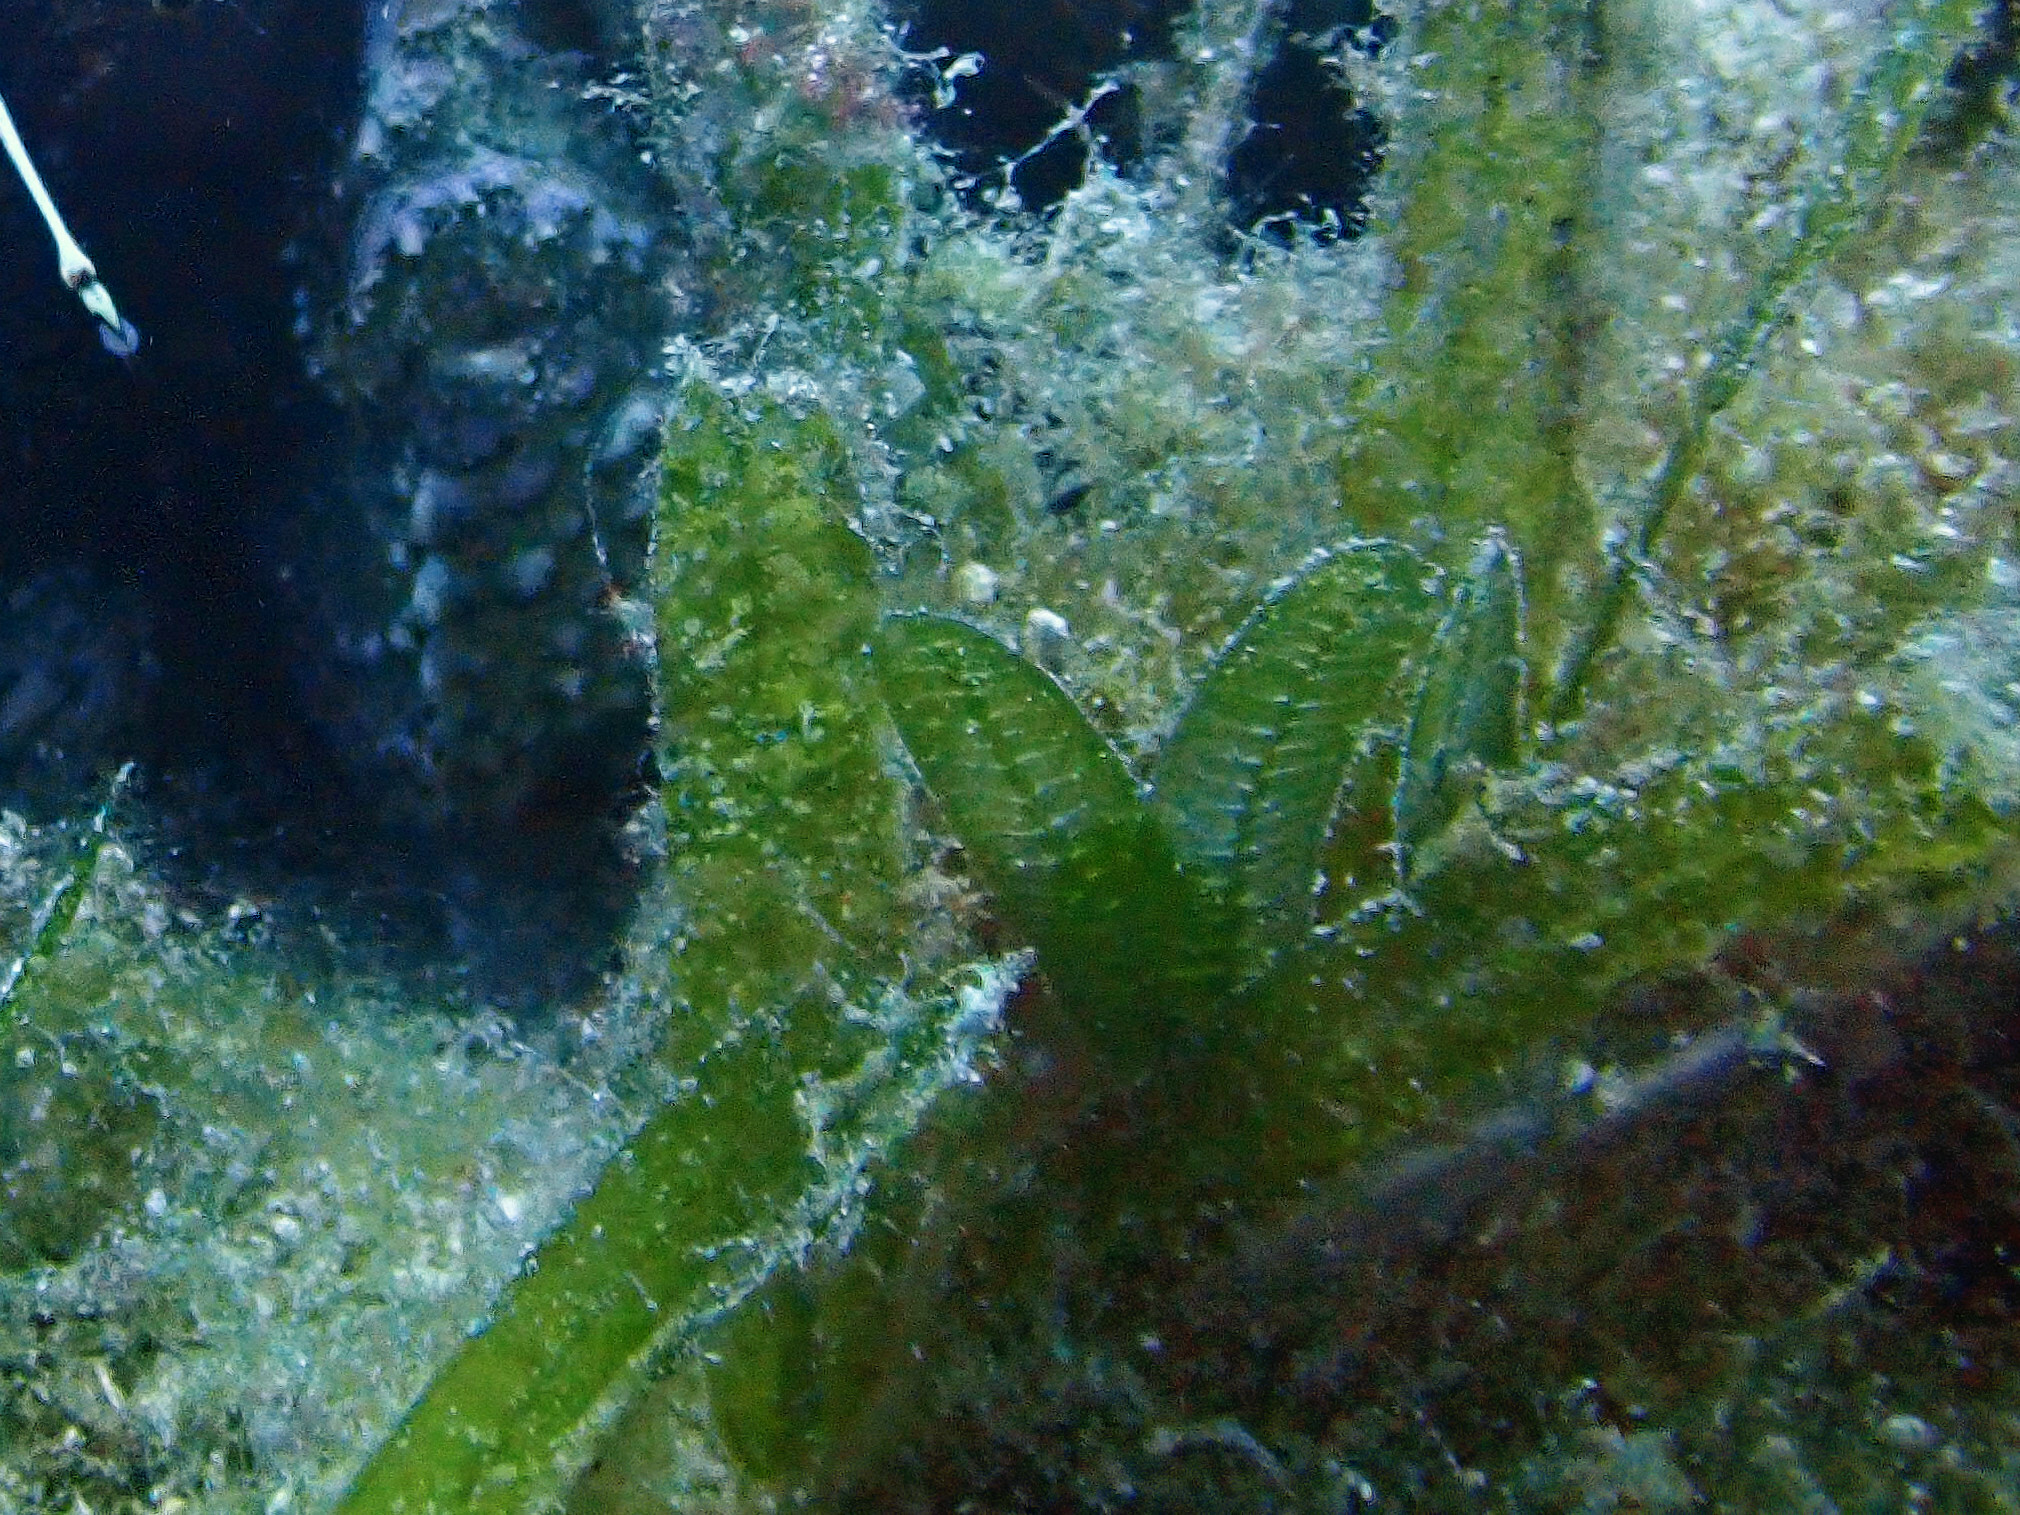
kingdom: Plantae
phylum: Tracheophyta
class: Liliopsida
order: Alismatales
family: Hydrocharitaceae
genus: Halophila
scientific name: Halophila stipulacea
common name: Species code: hs
